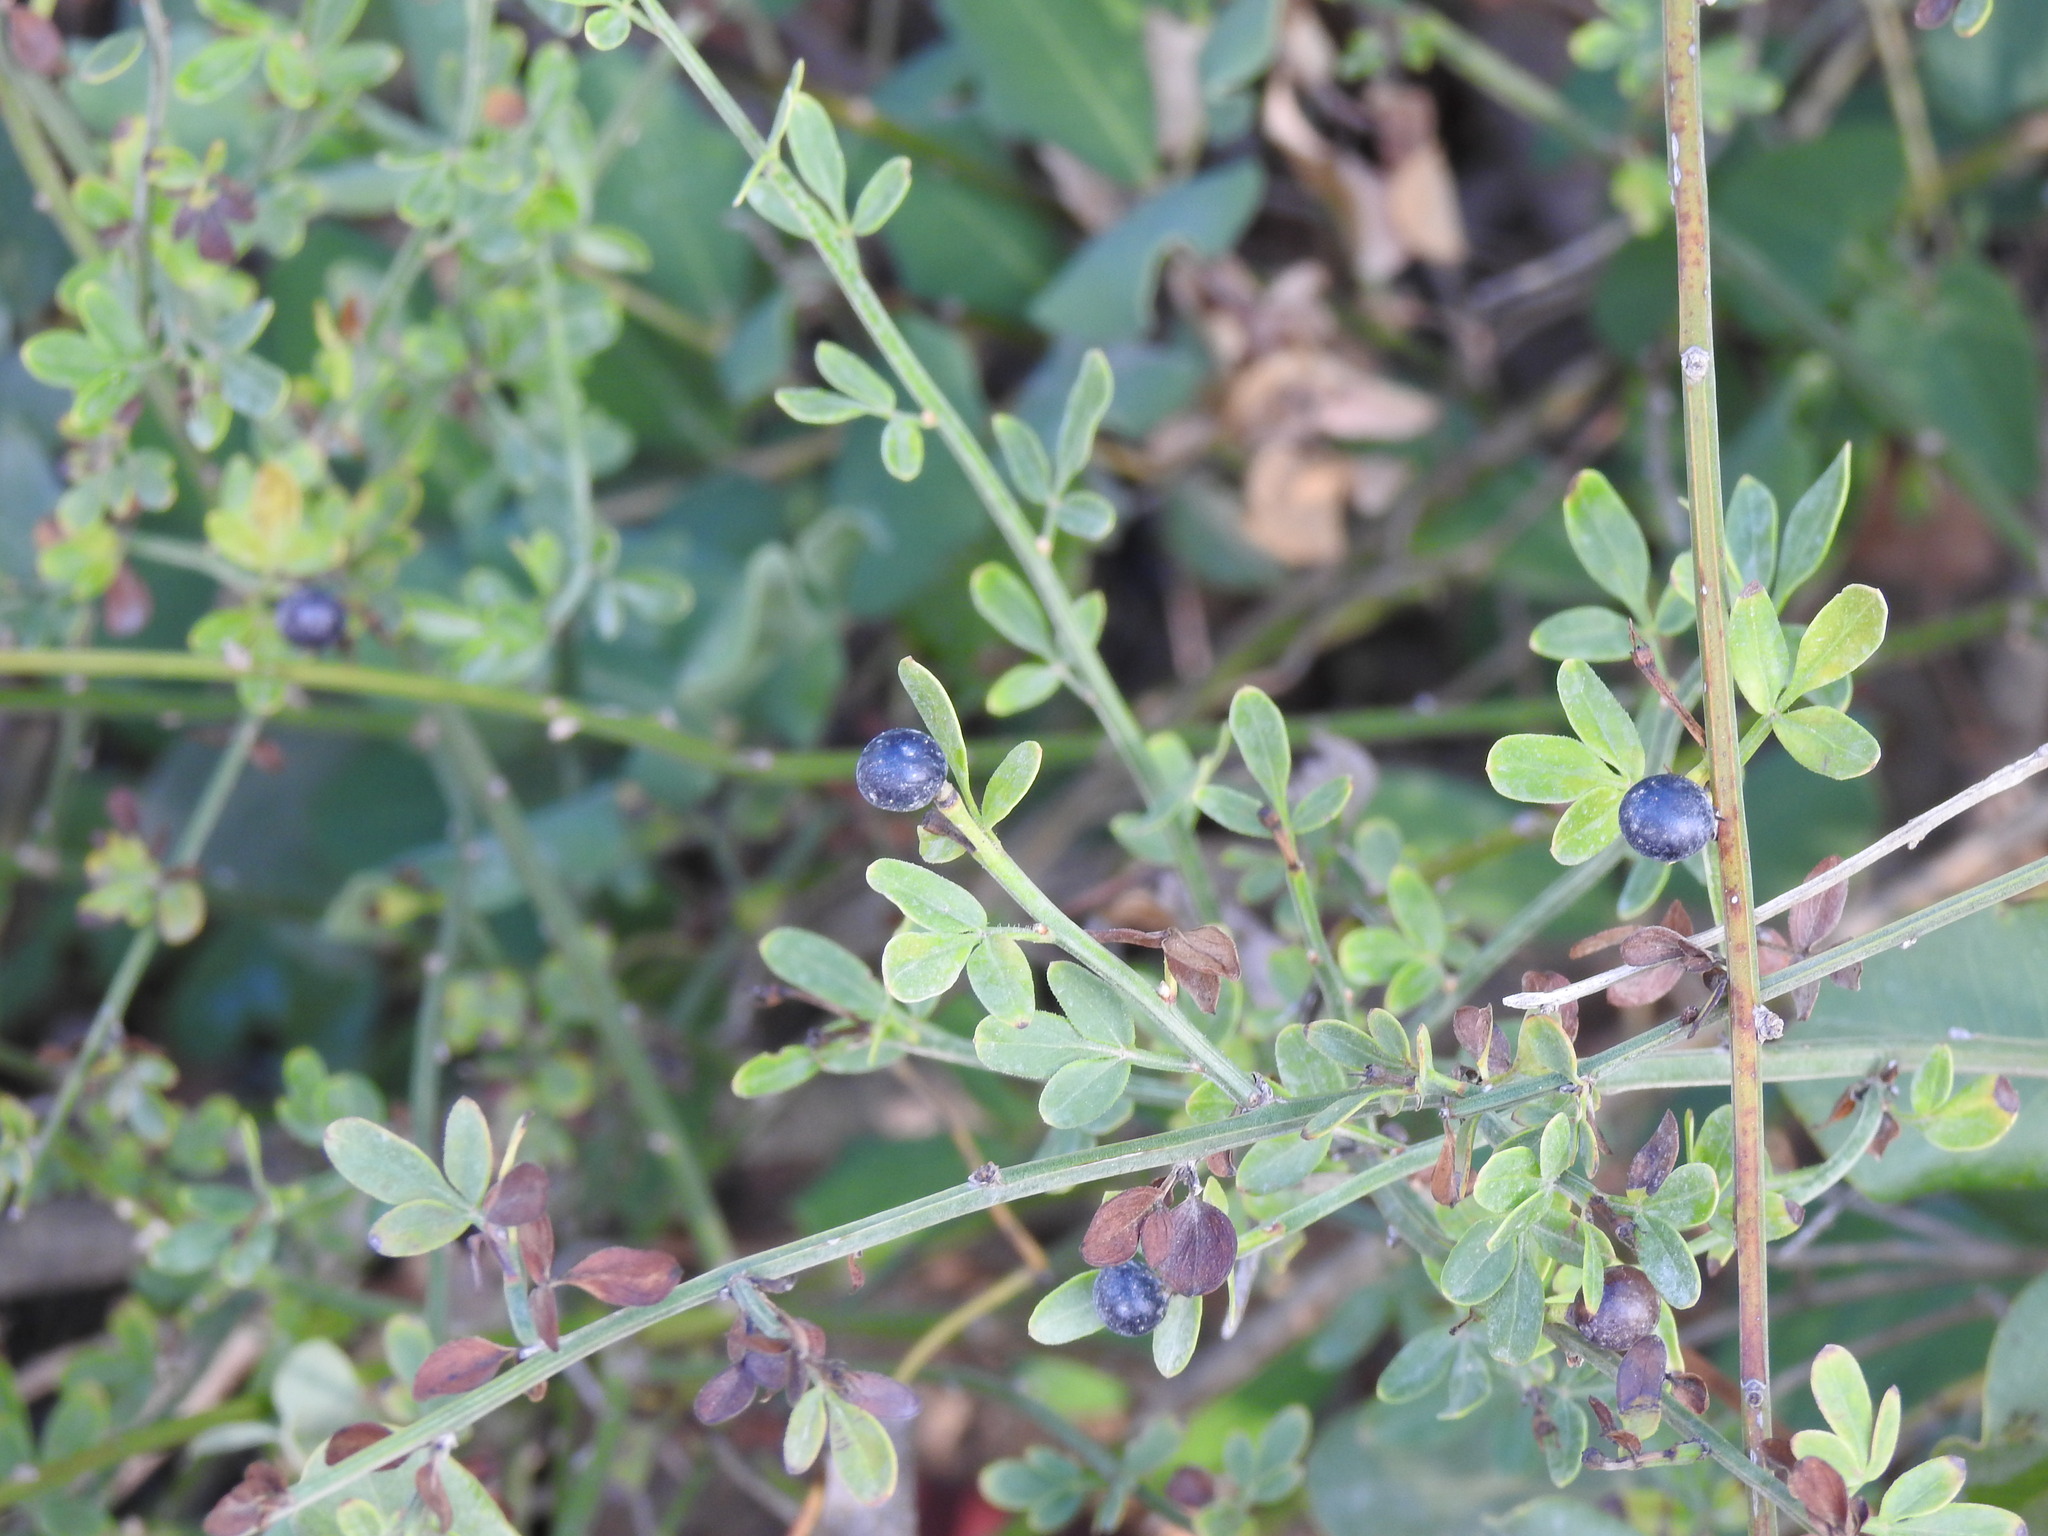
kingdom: Plantae
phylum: Tracheophyta
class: Magnoliopsida
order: Lamiales
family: Oleaceae
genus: Chrysojasminum
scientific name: Chrysojasminum fruticans
